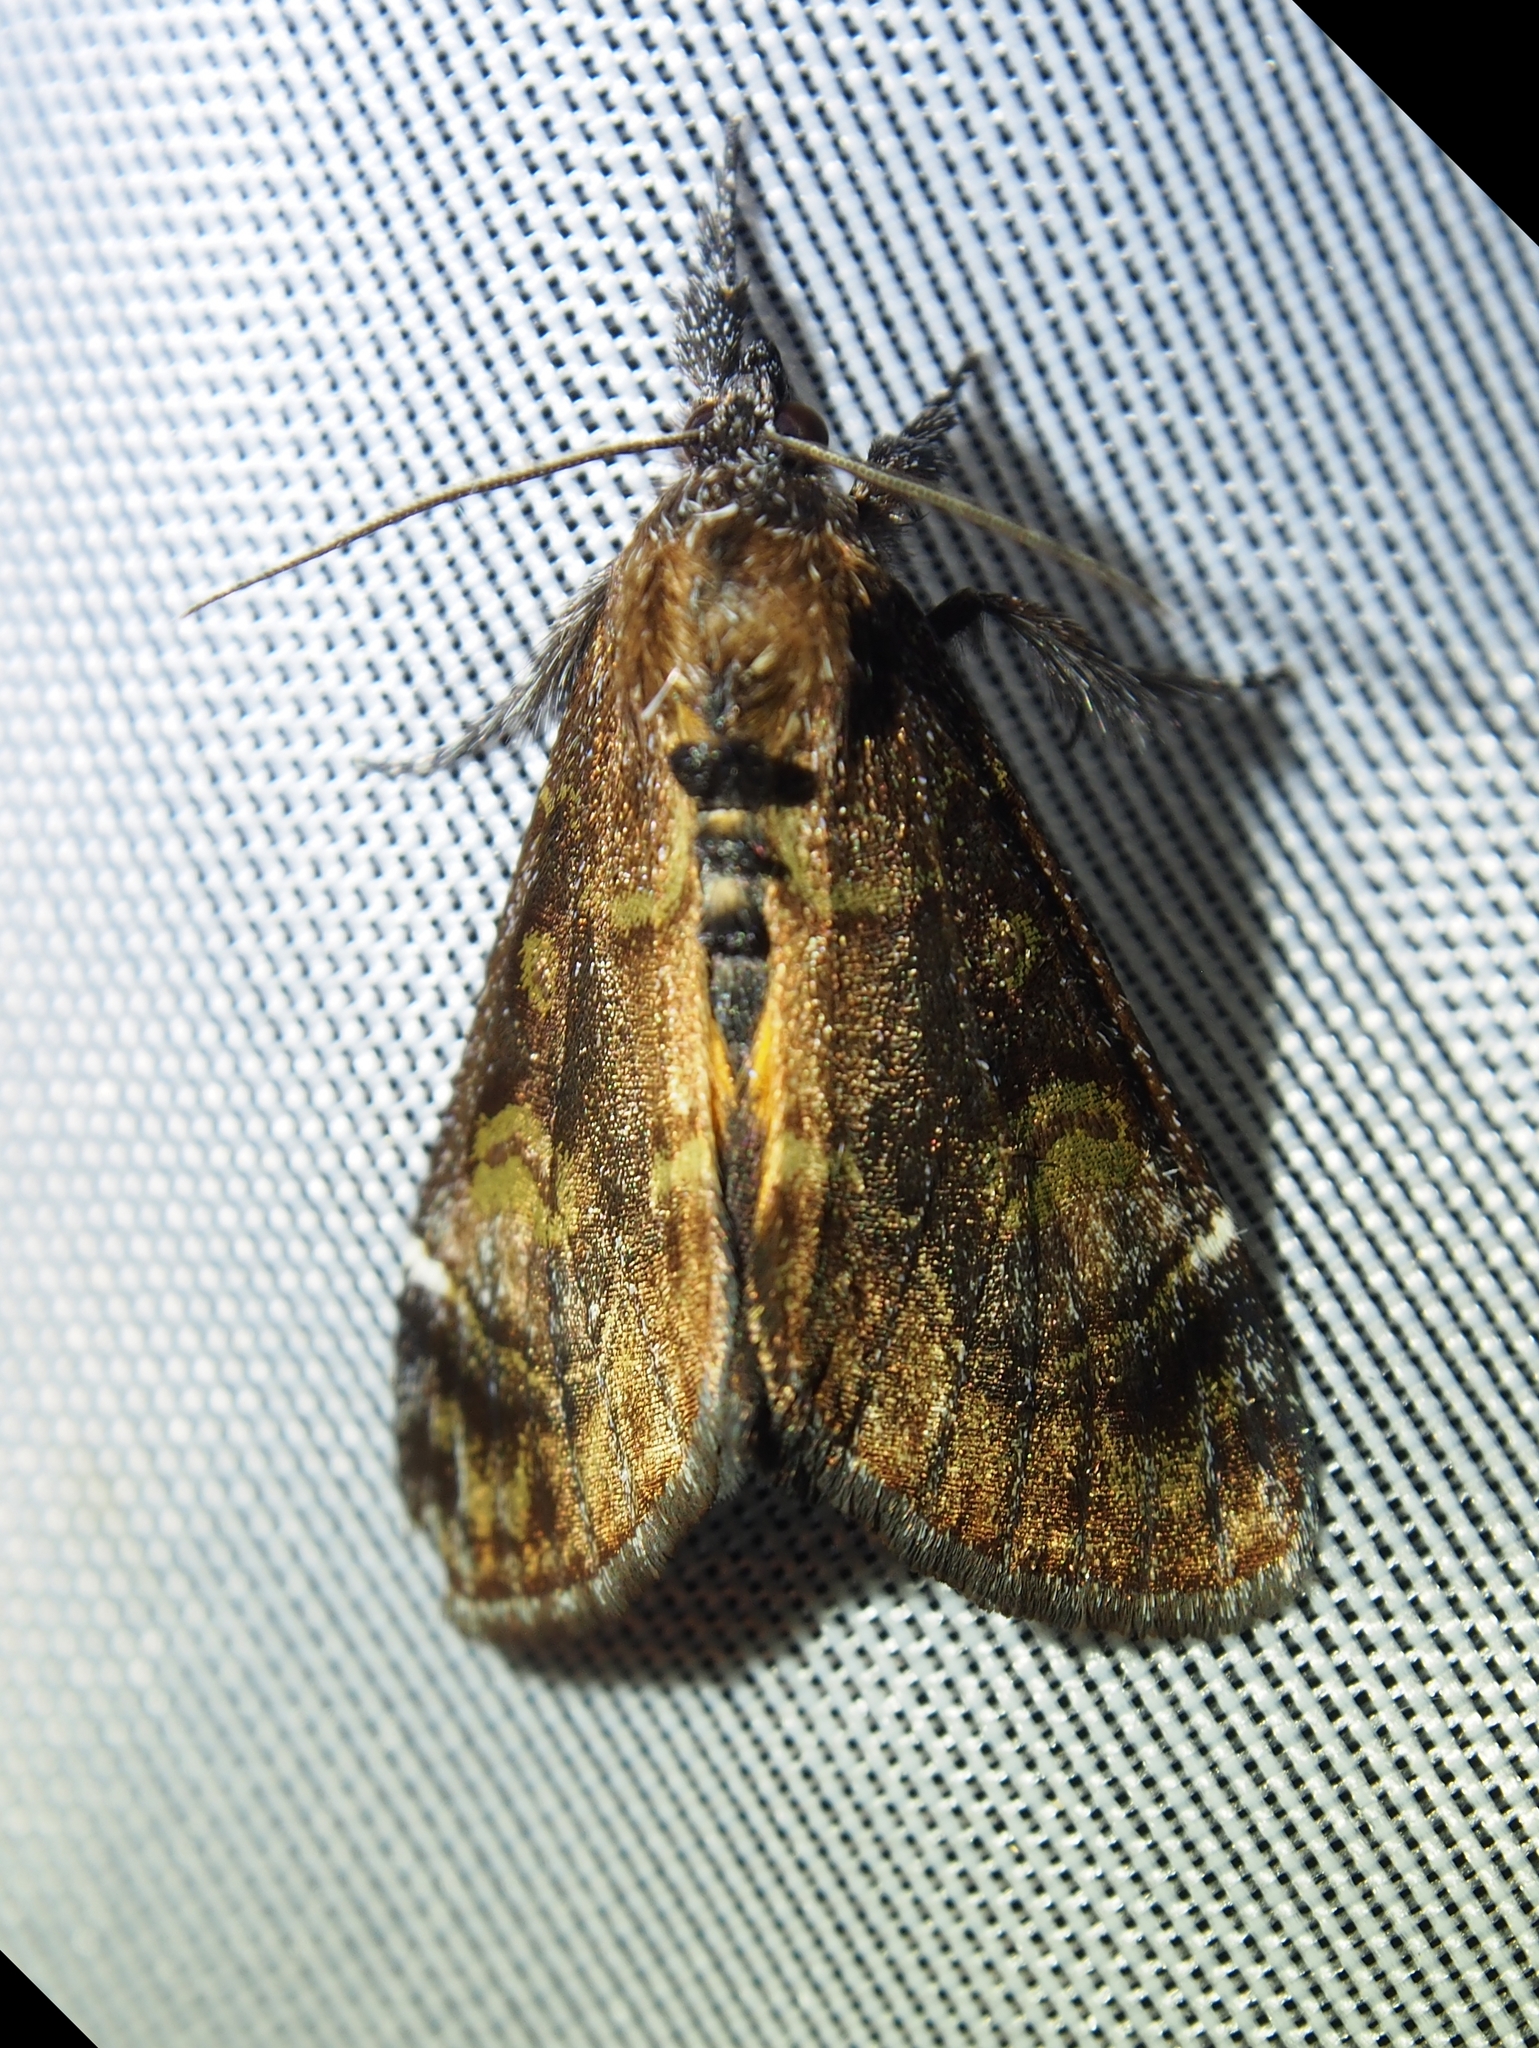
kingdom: Animalia
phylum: Arthropoda
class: Insecta
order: Lepidoptera
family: Noctuidae
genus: Gerra
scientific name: Gerra aelia
